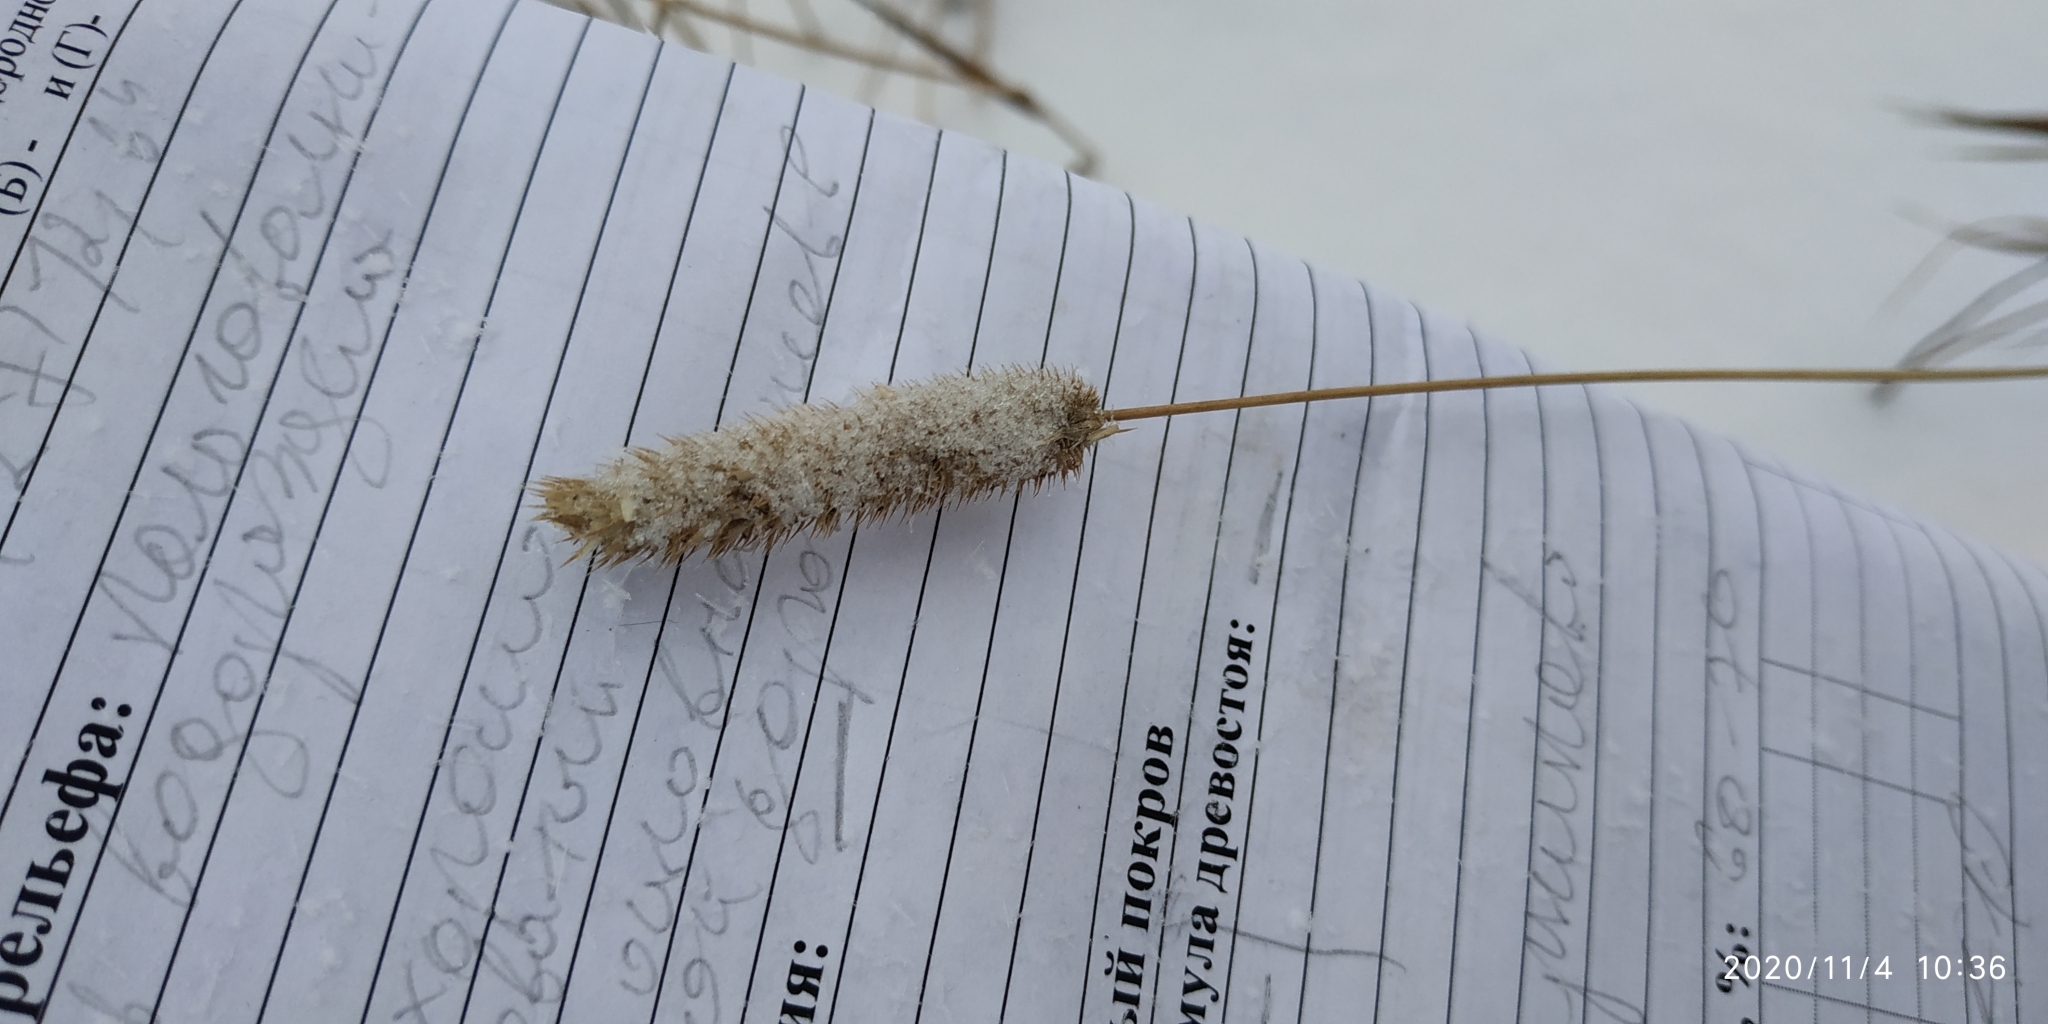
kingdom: Plantae
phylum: Tracheophyta
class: Liliopsida
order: Poales
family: Poaceae
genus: Phleum
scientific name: Phleum pratense
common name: Timothy grass
